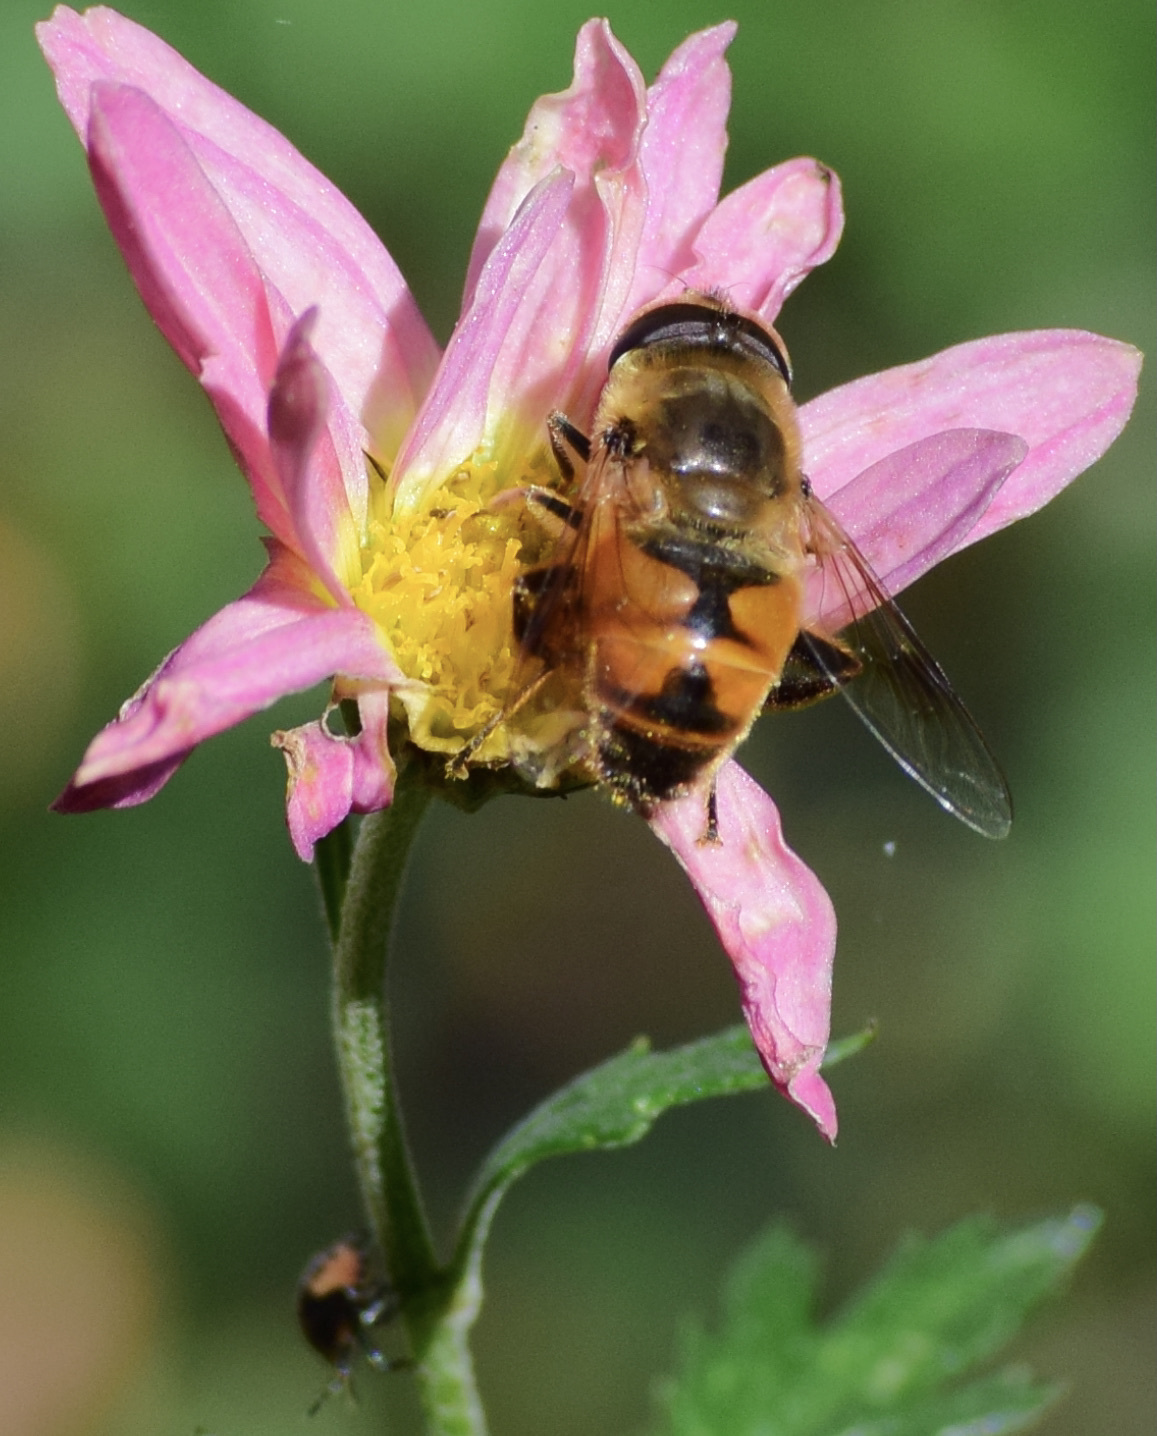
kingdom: Animalia
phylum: Arthropoda
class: Insecta
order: Diptera
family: Syrphidae
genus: Eristalis
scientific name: Eristalis tenax
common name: Drone fly
